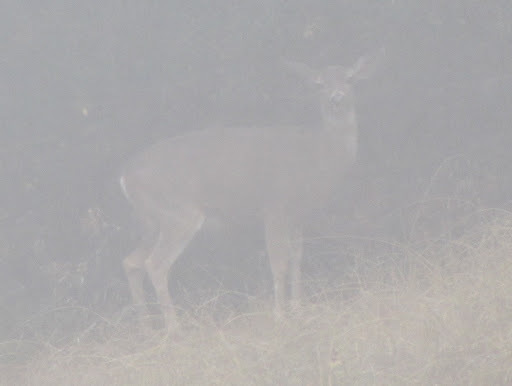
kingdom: Animalia
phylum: Chordata
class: Mammalia
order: Artiodactyla
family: Cervidae
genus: Odocoileus
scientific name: Odocoileus hemionus
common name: Mule deer
